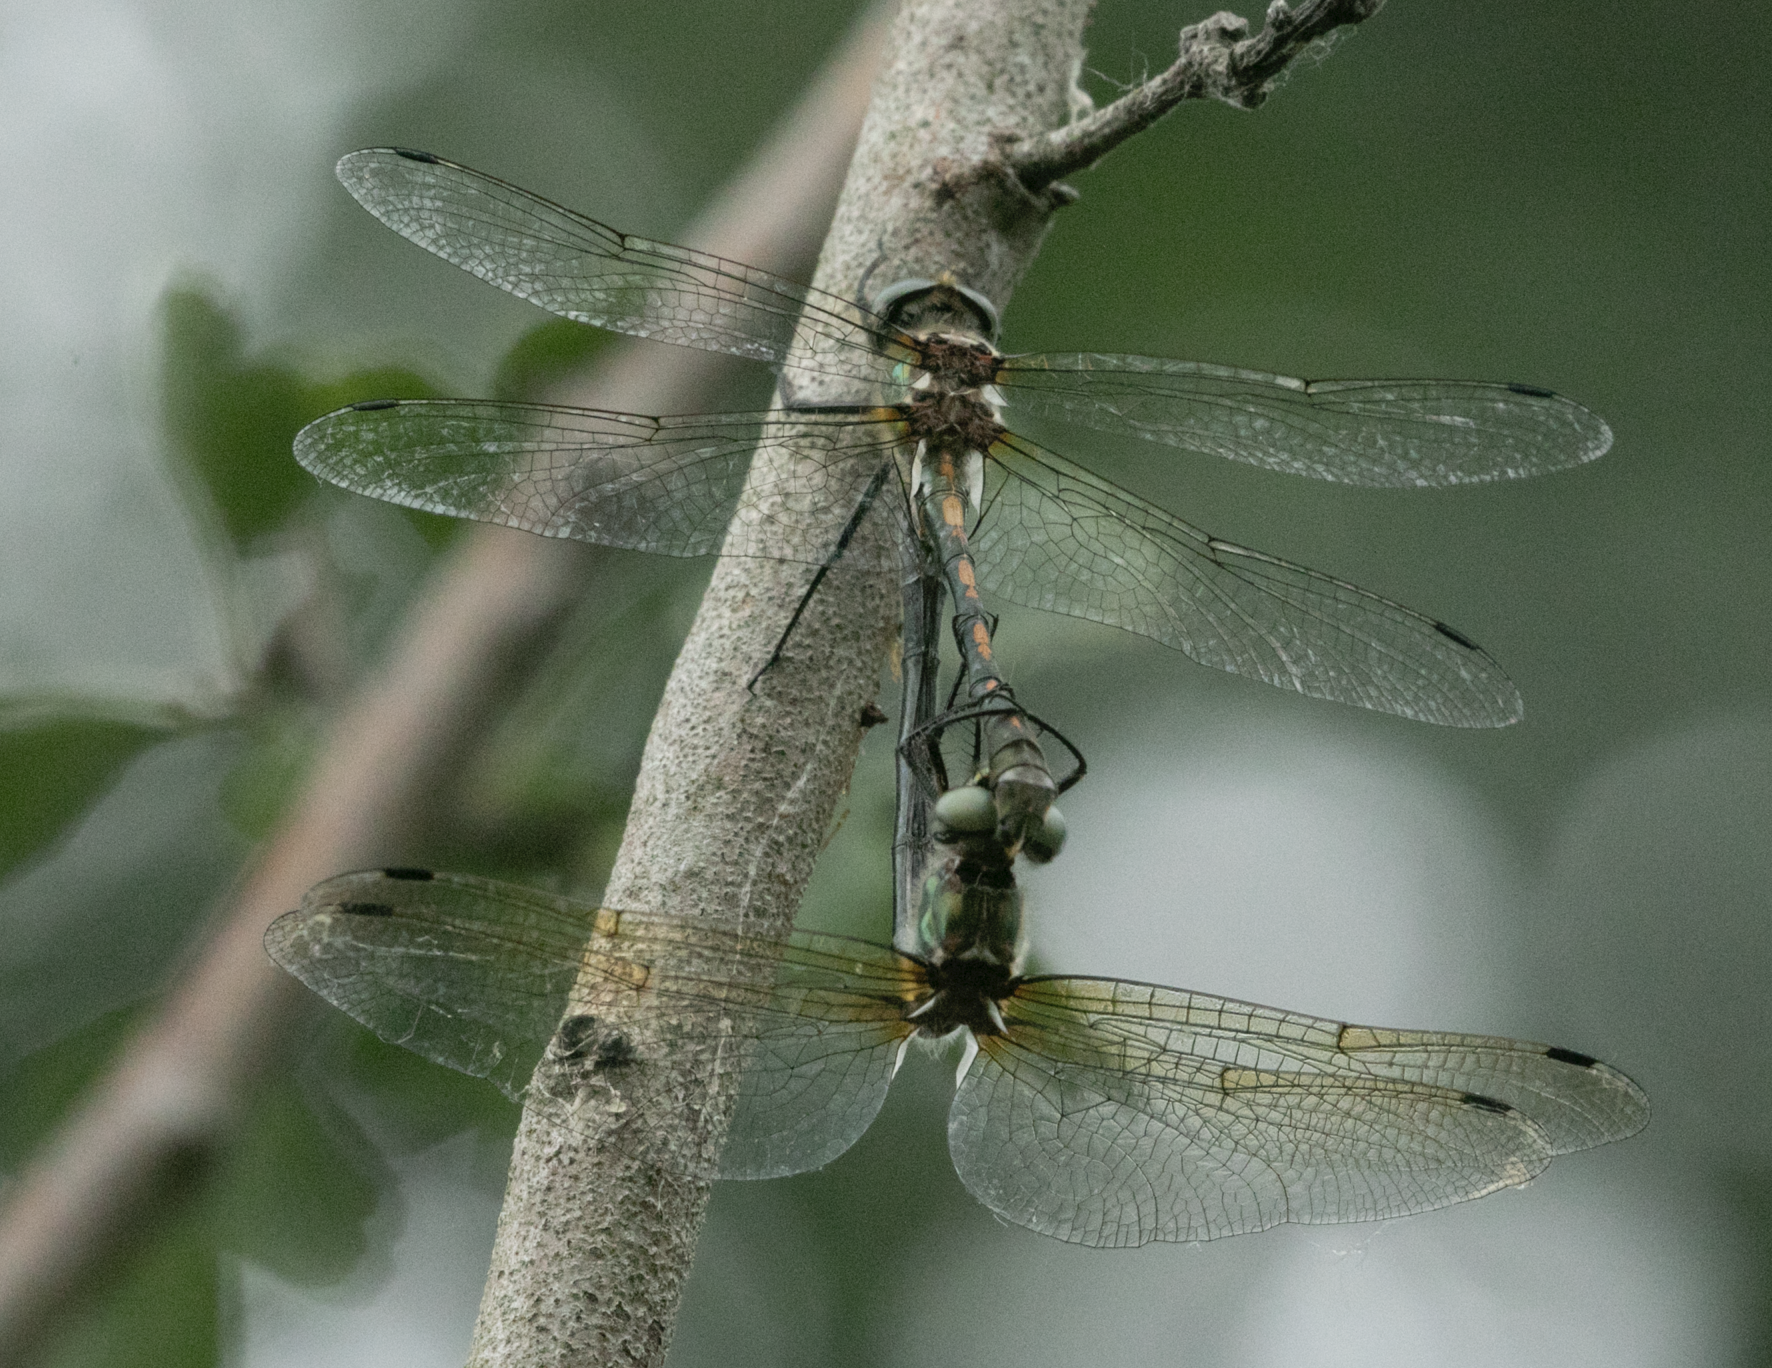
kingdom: Animalia
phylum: Arthropoda
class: Insecta
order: Odonata
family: Corduliidae
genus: Oxygastra
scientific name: Oxygastra curtisii
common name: Orange-spotted emerald
